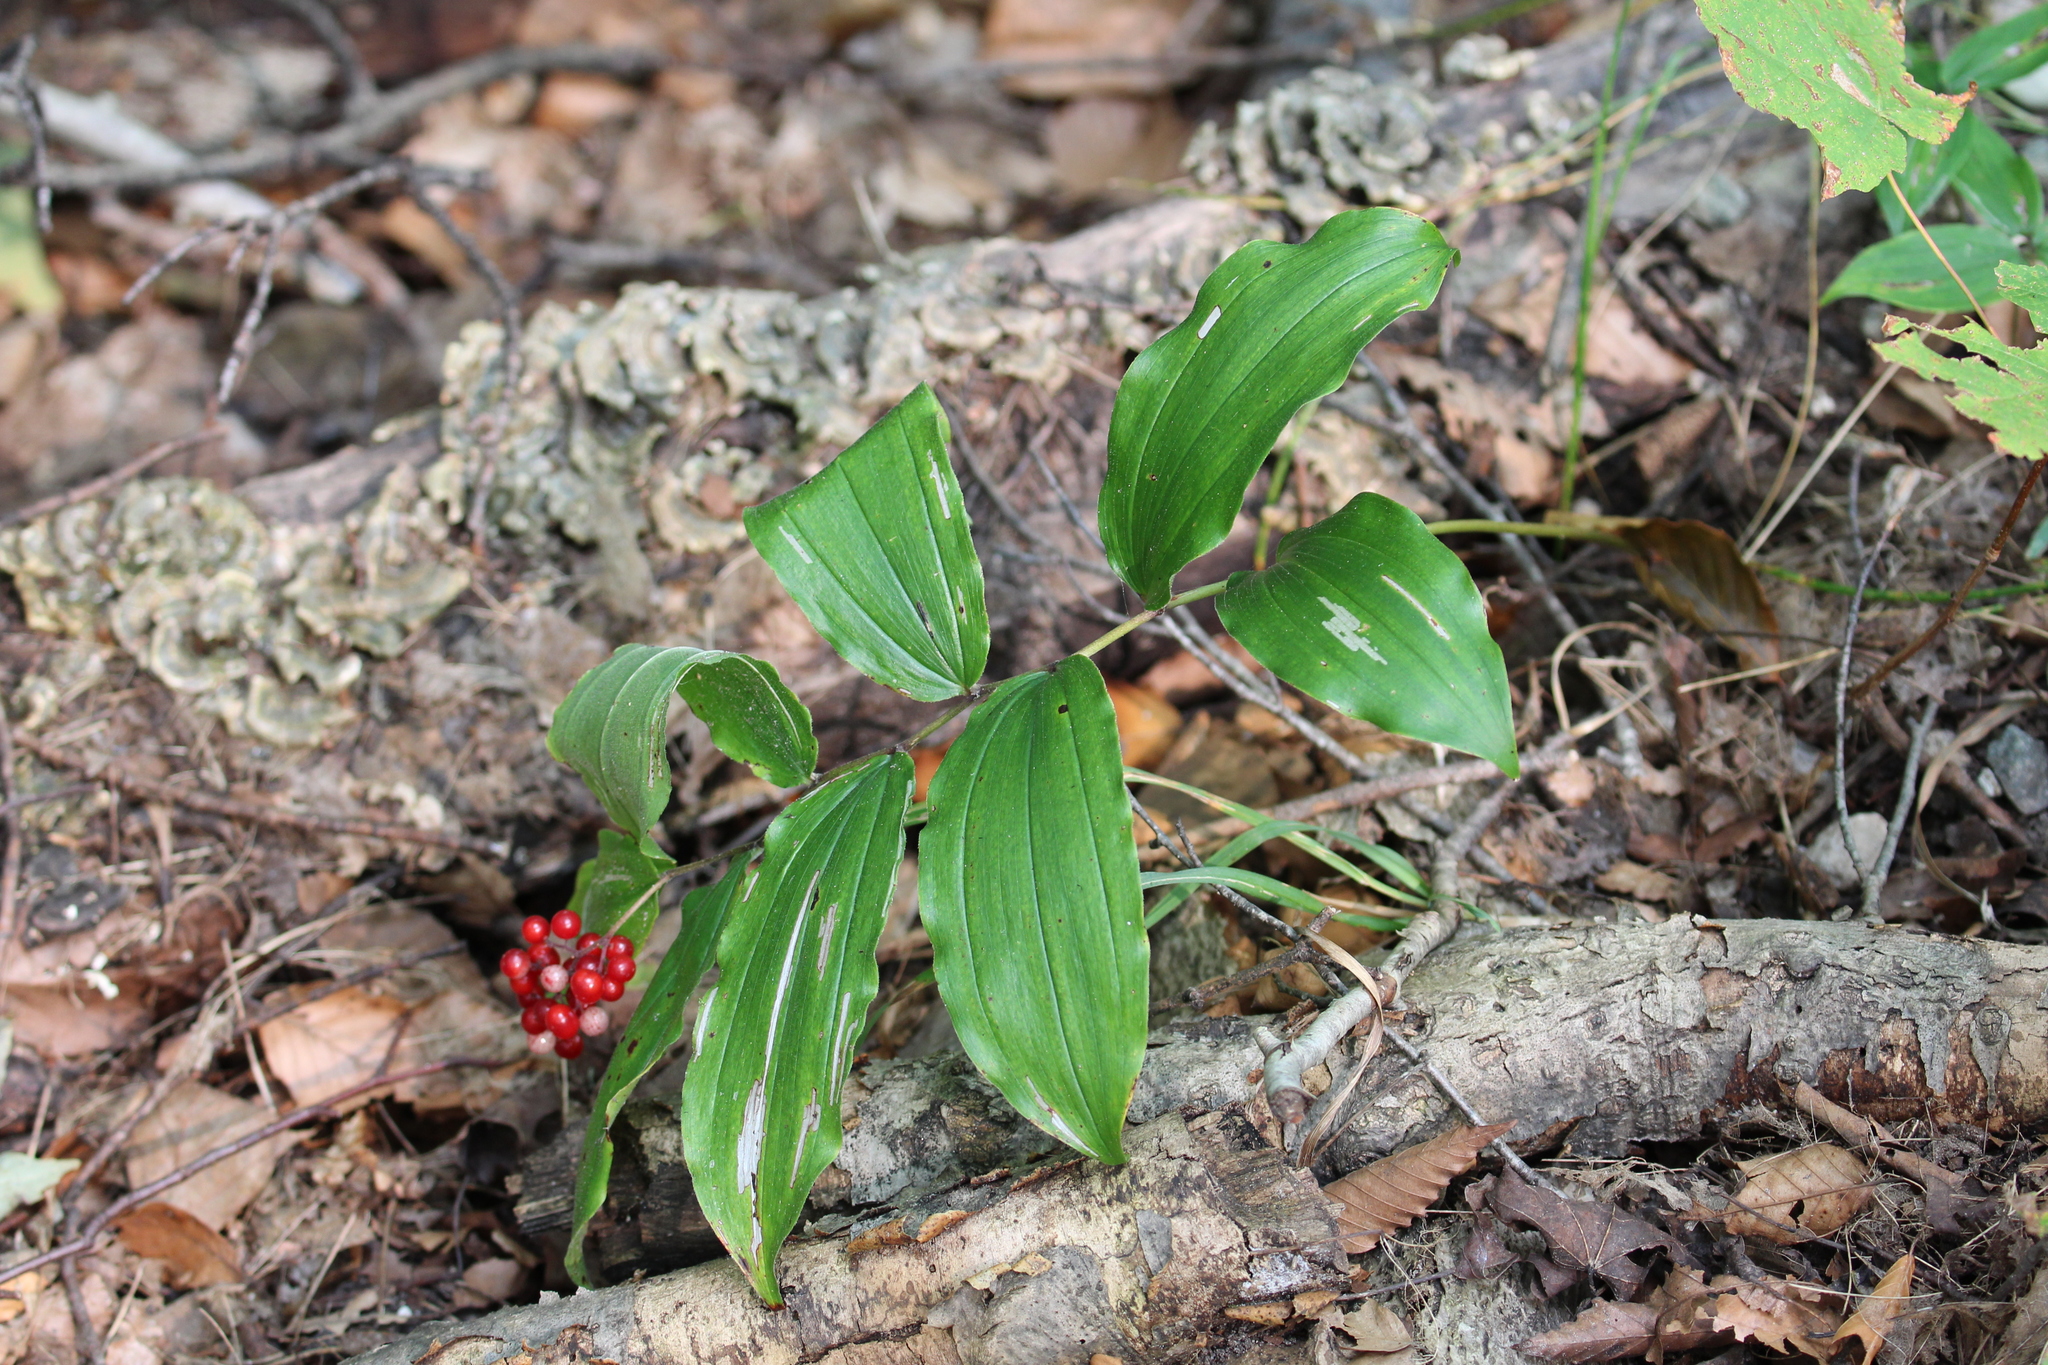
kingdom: Plantae
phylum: Tracheophyta
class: Liliopsida
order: Asparagales
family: Asparagaceae
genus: Maianthemum
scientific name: Maianthemum racemosum
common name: False spikenard
